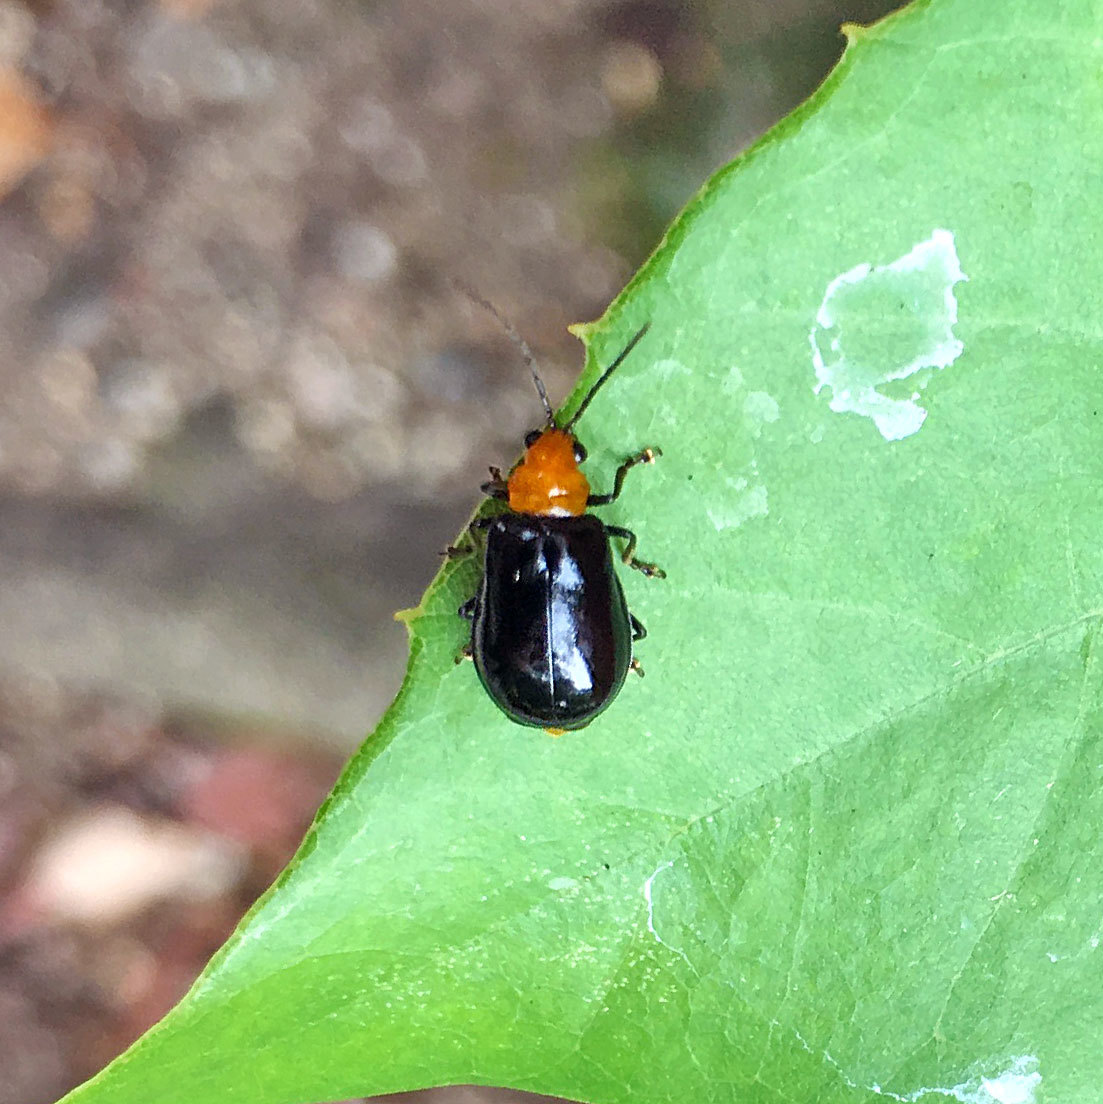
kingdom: Animalia
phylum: Arthropoda
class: Insecta
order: Coleoptera
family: Chrysomelidae
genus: Aulacophora
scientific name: Aulacophora nigripennis
